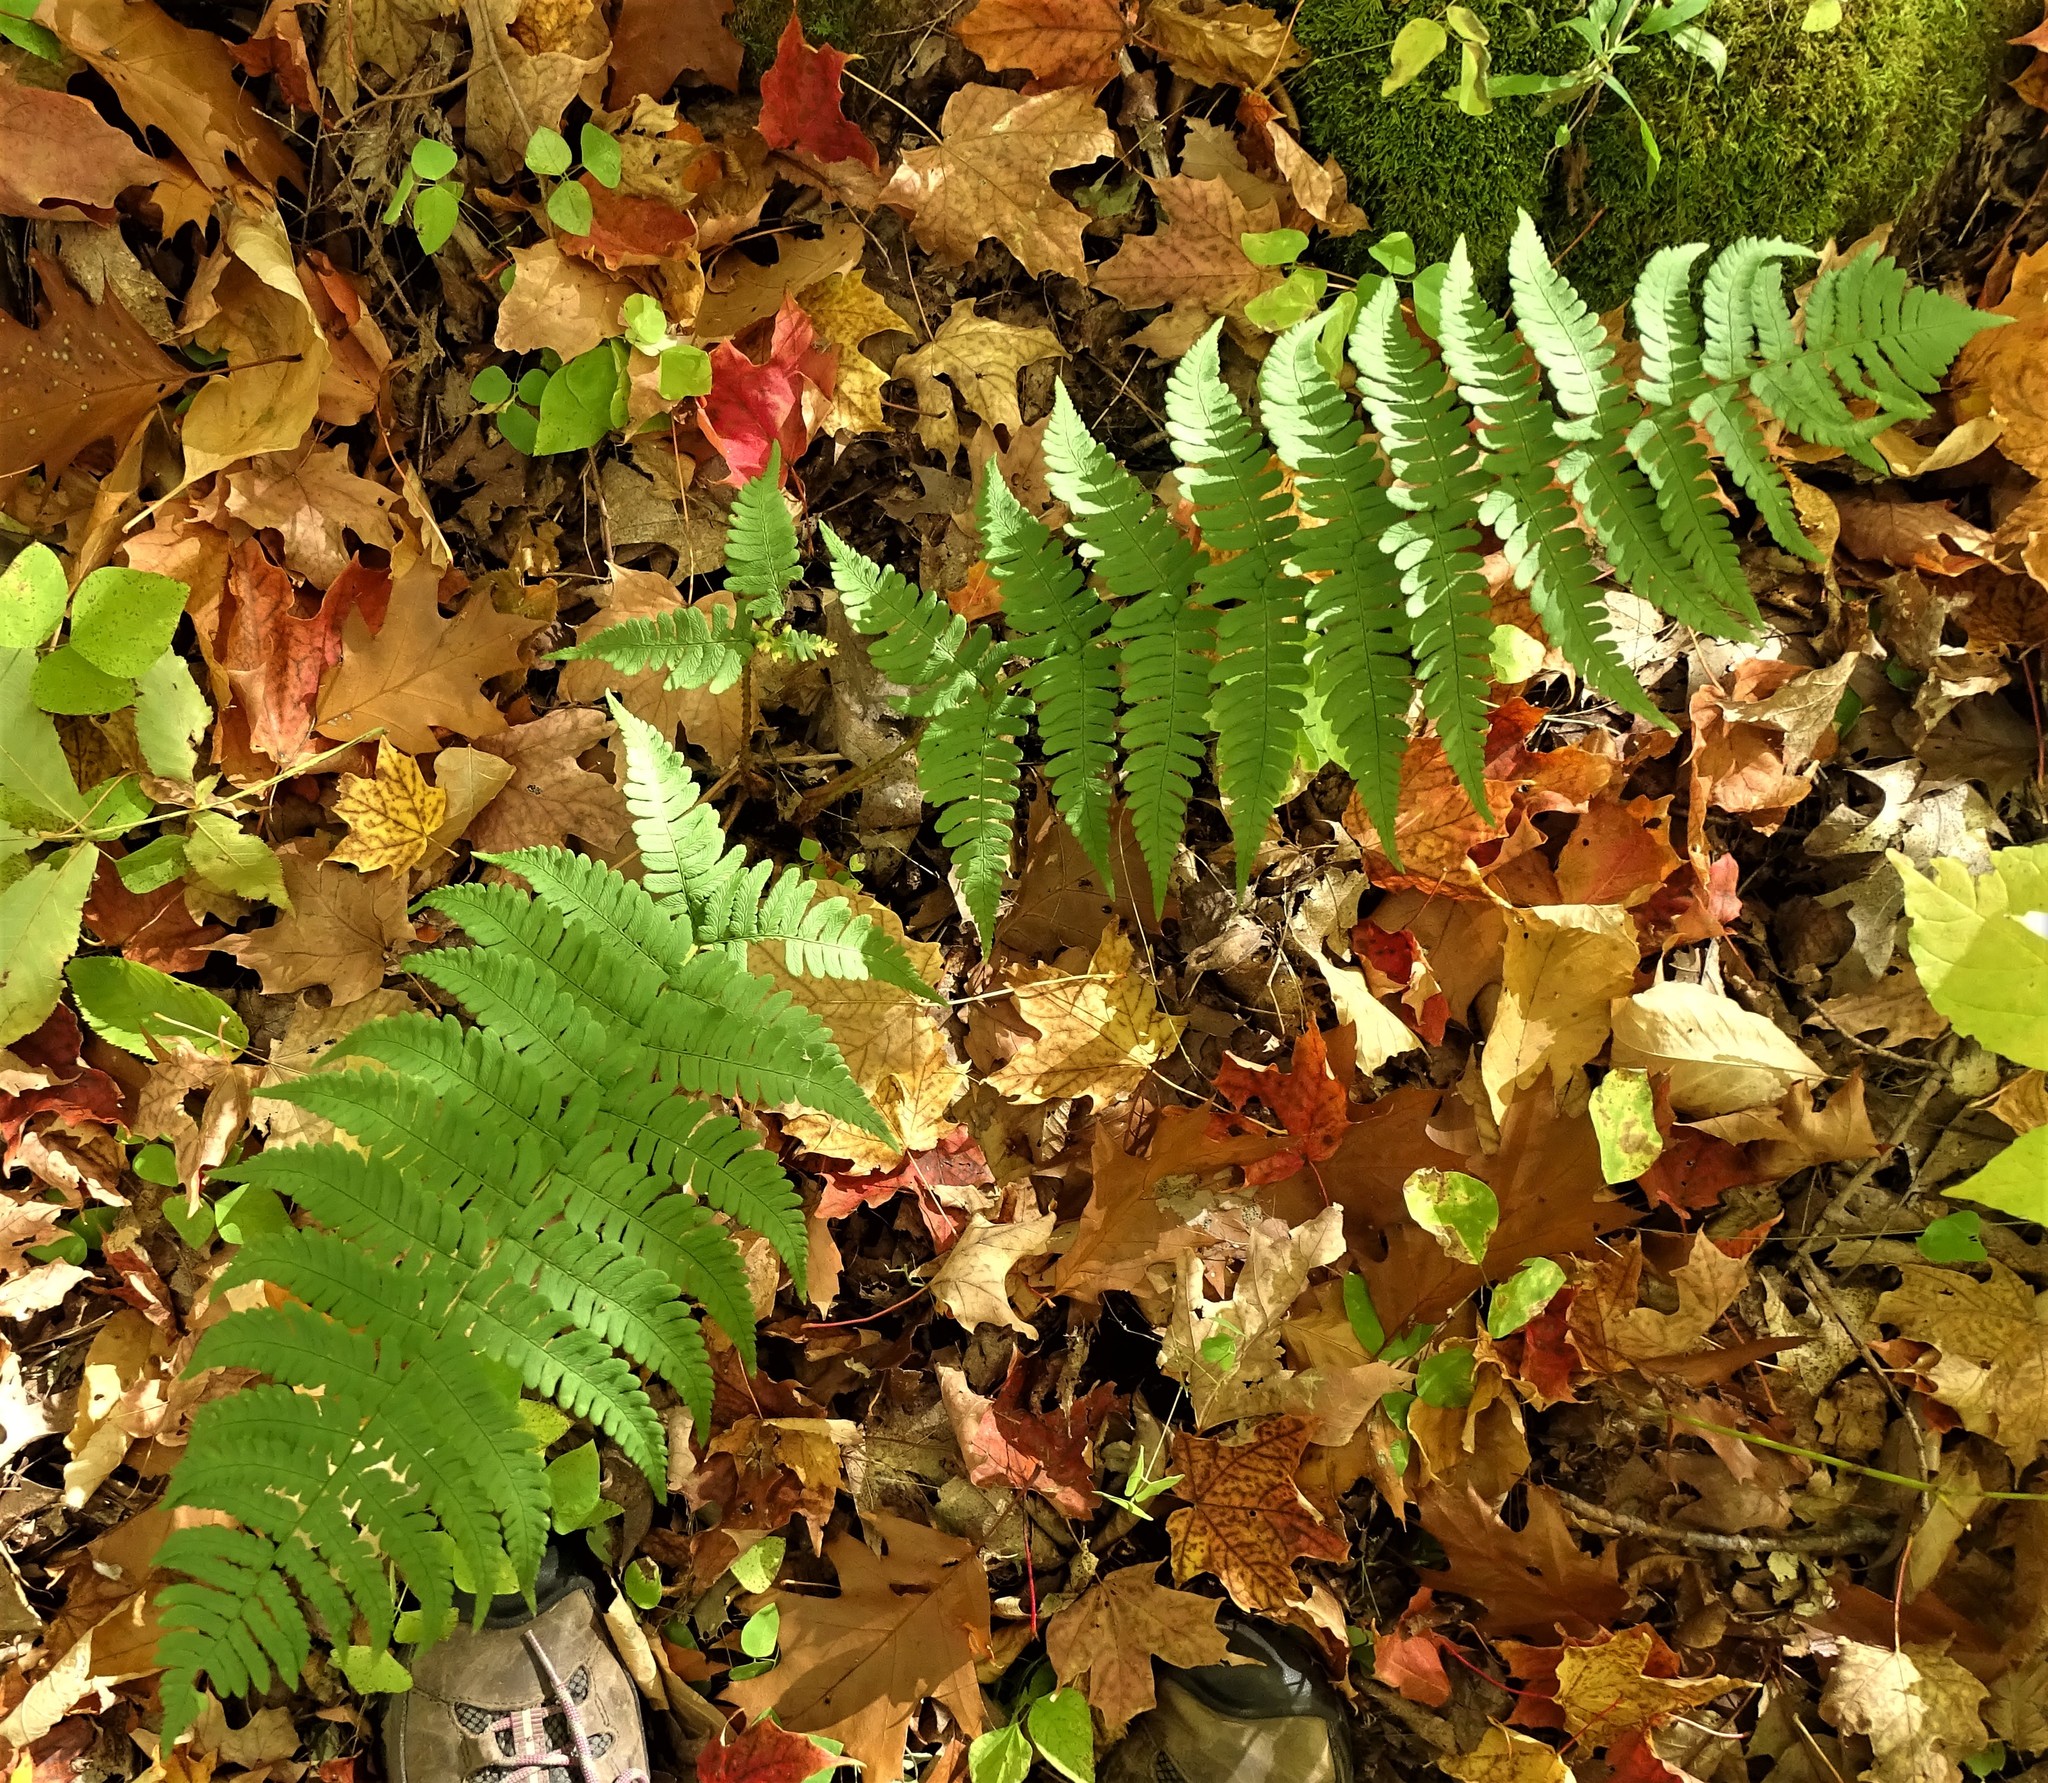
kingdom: Plantae
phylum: Tracheophyta
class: Polypodiopsida
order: Polypodiales
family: Dryopteridaceae
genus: Dryopteris
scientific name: Dryopteris marginalis
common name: Marginal wood fern
